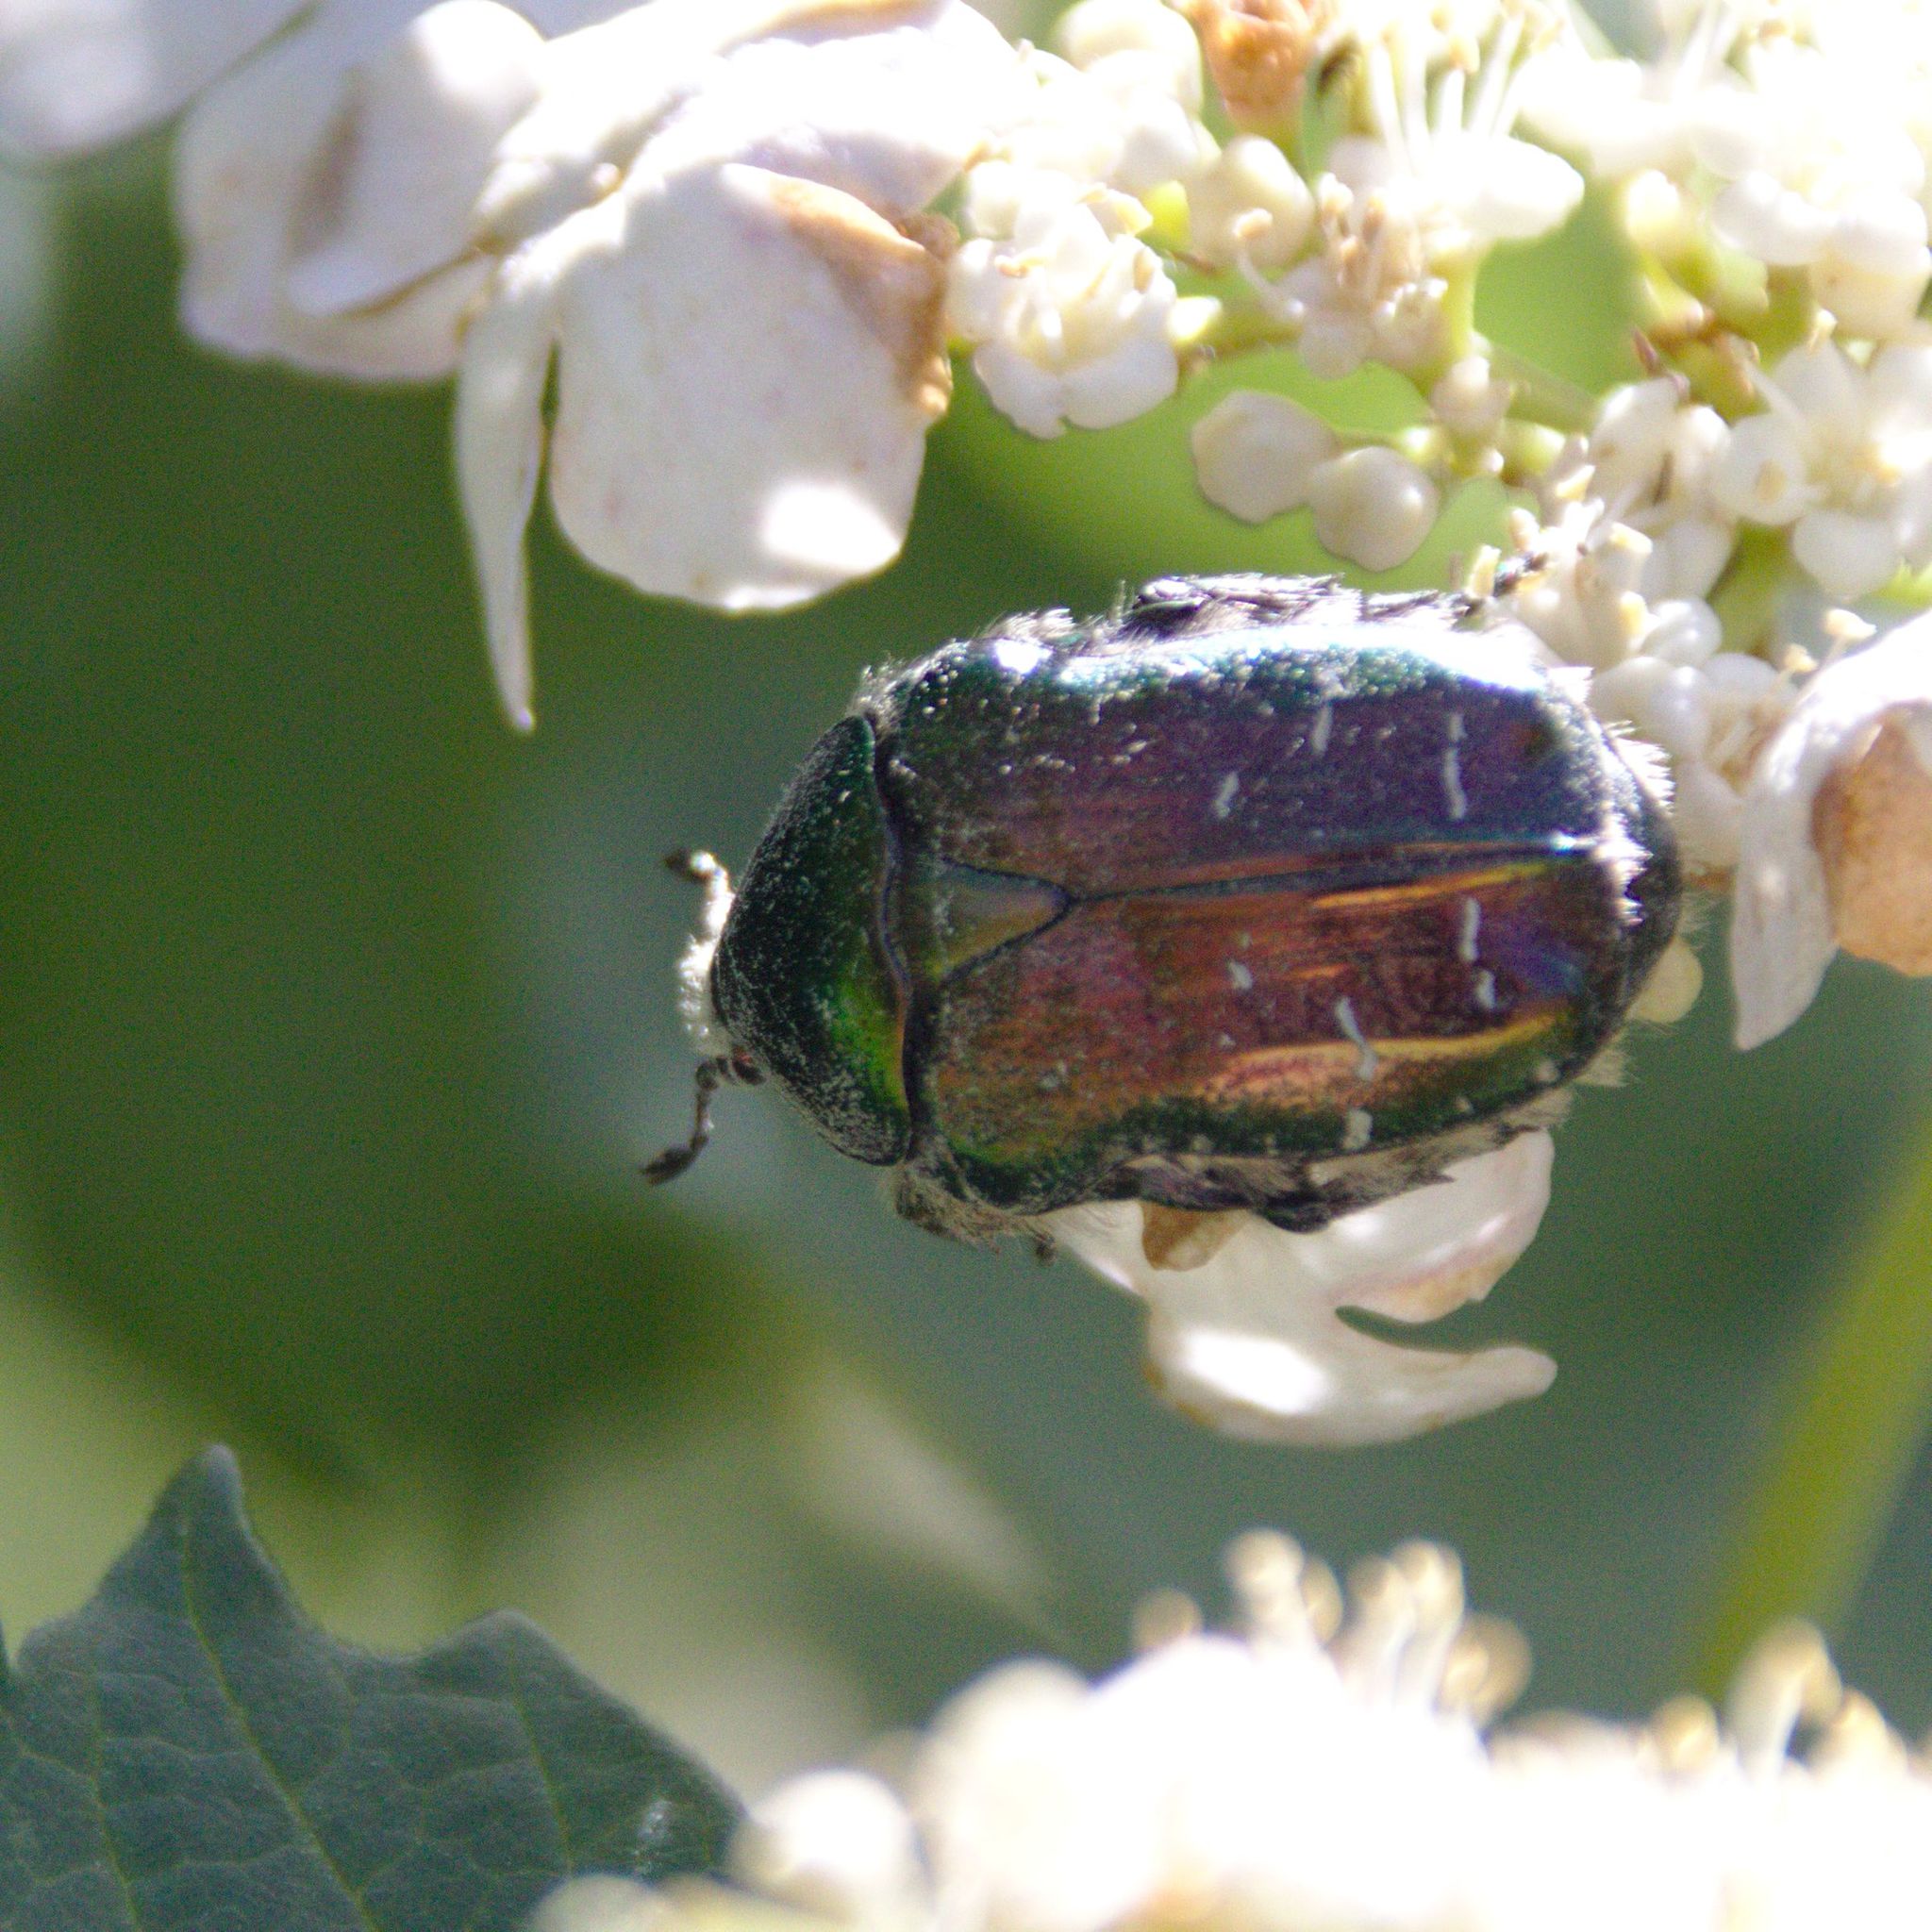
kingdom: Animalia
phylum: Arthropoda
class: Insecta
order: Coleoptera
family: Scarabaeidae
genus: Cetonia
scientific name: Cetonia aurata
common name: Rose chafer
